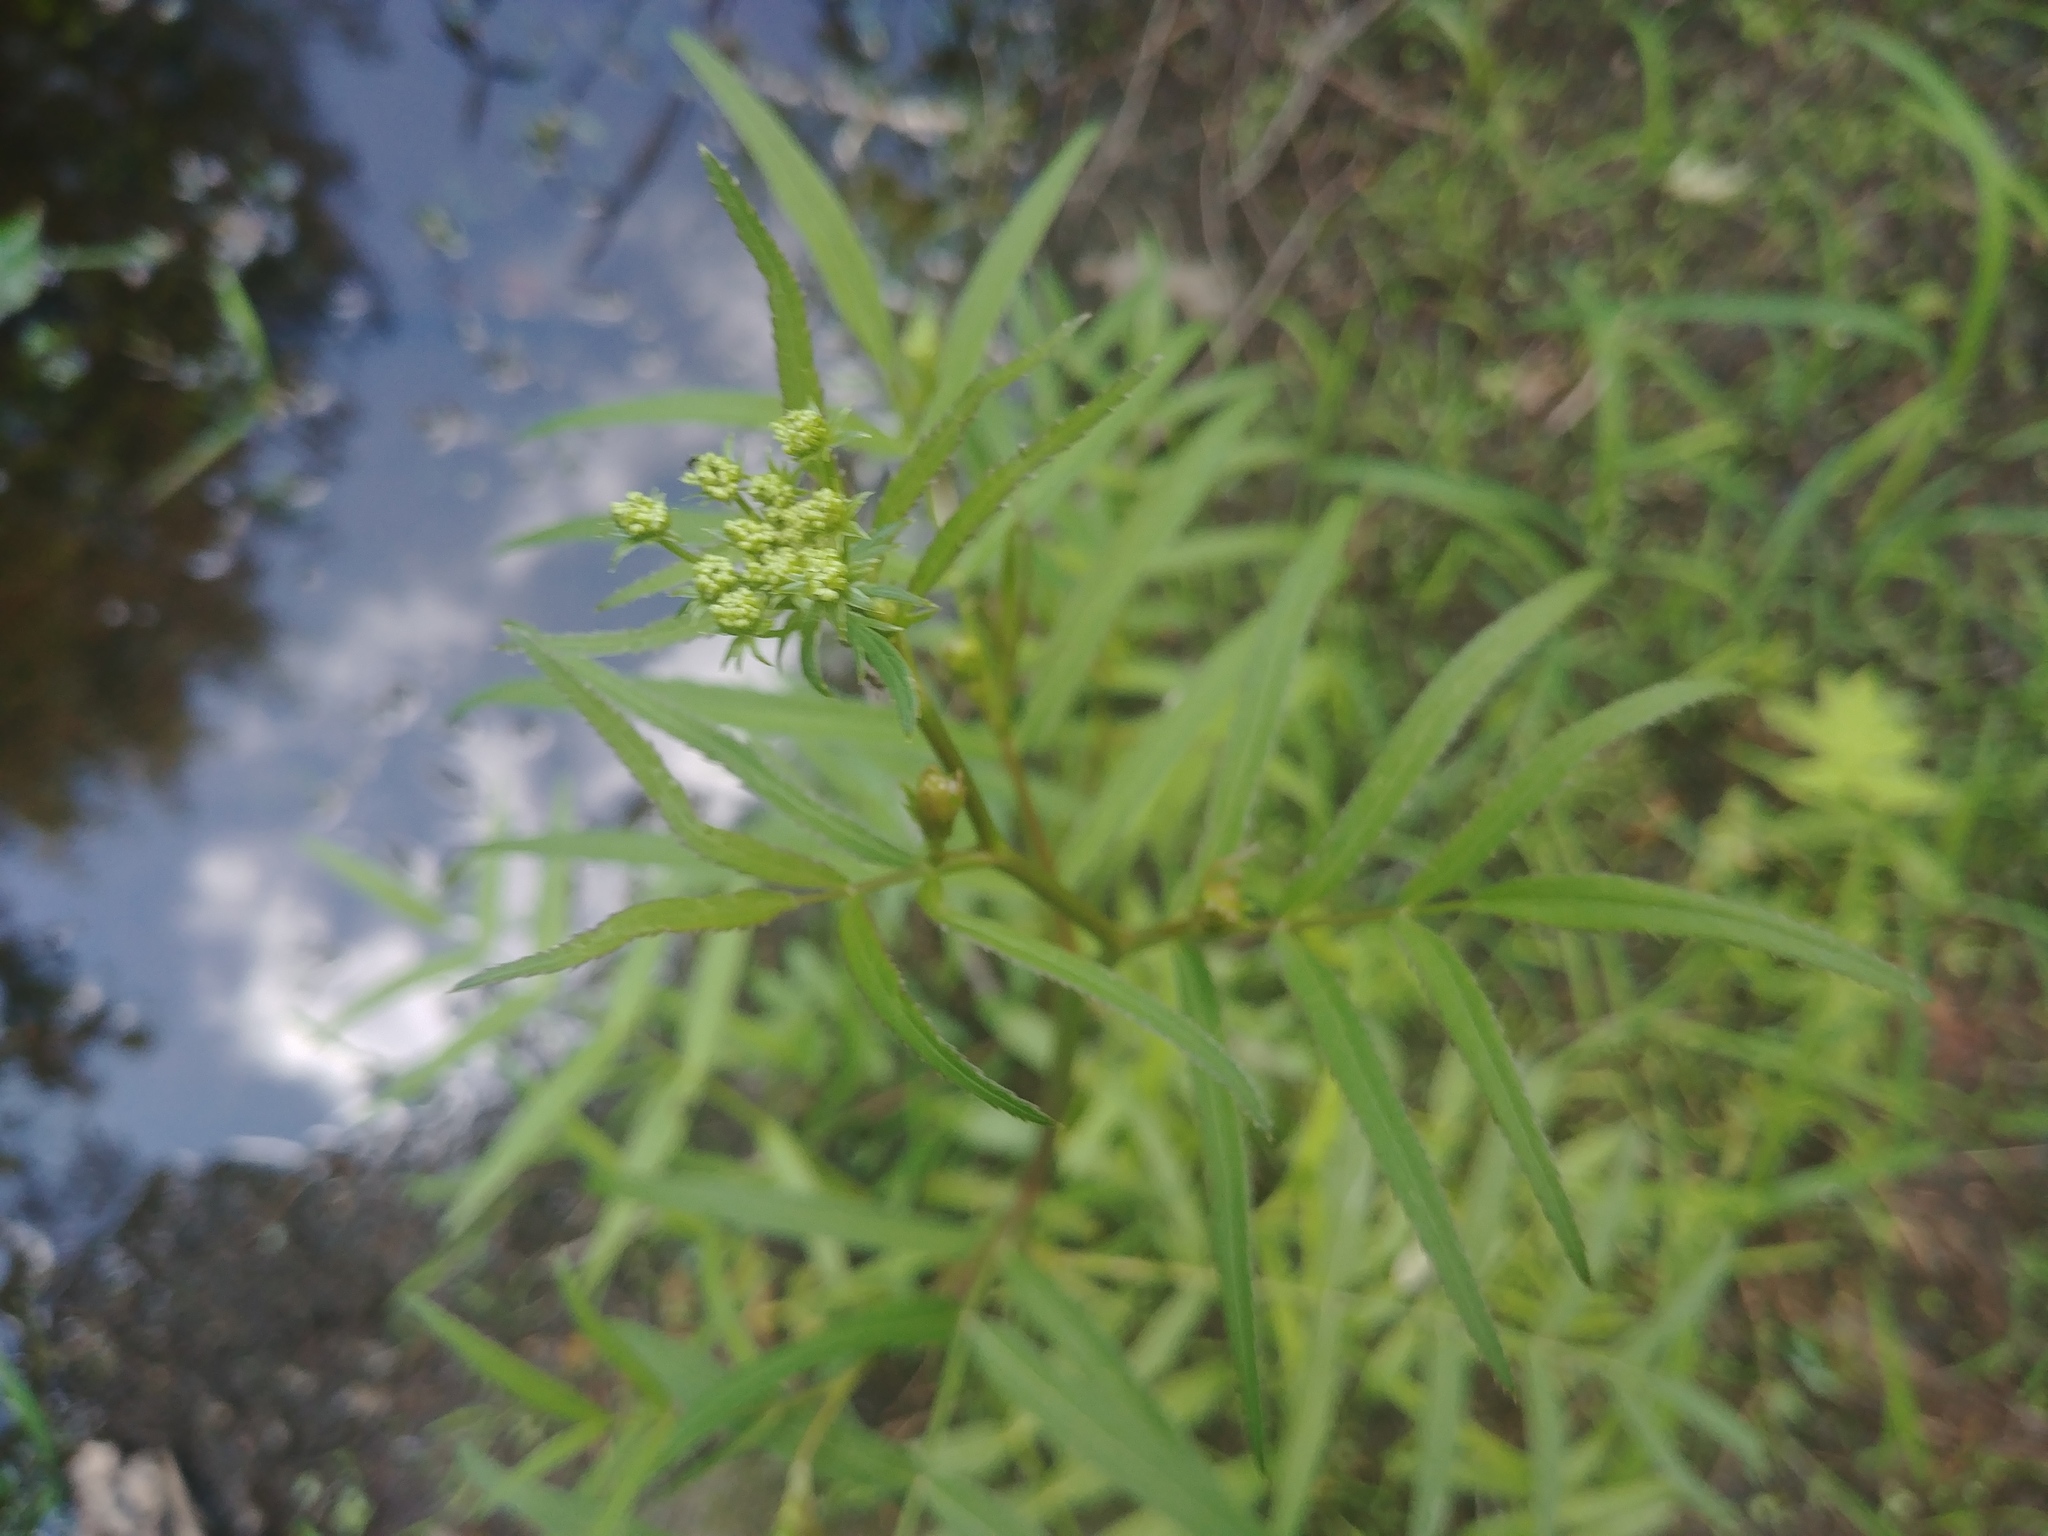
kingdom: Plantae
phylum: Tracheophyta
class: Magnoliopsida
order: Apiales
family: Apiaceae
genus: Sium
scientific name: Sium suave
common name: Hemlock water-parsnip
